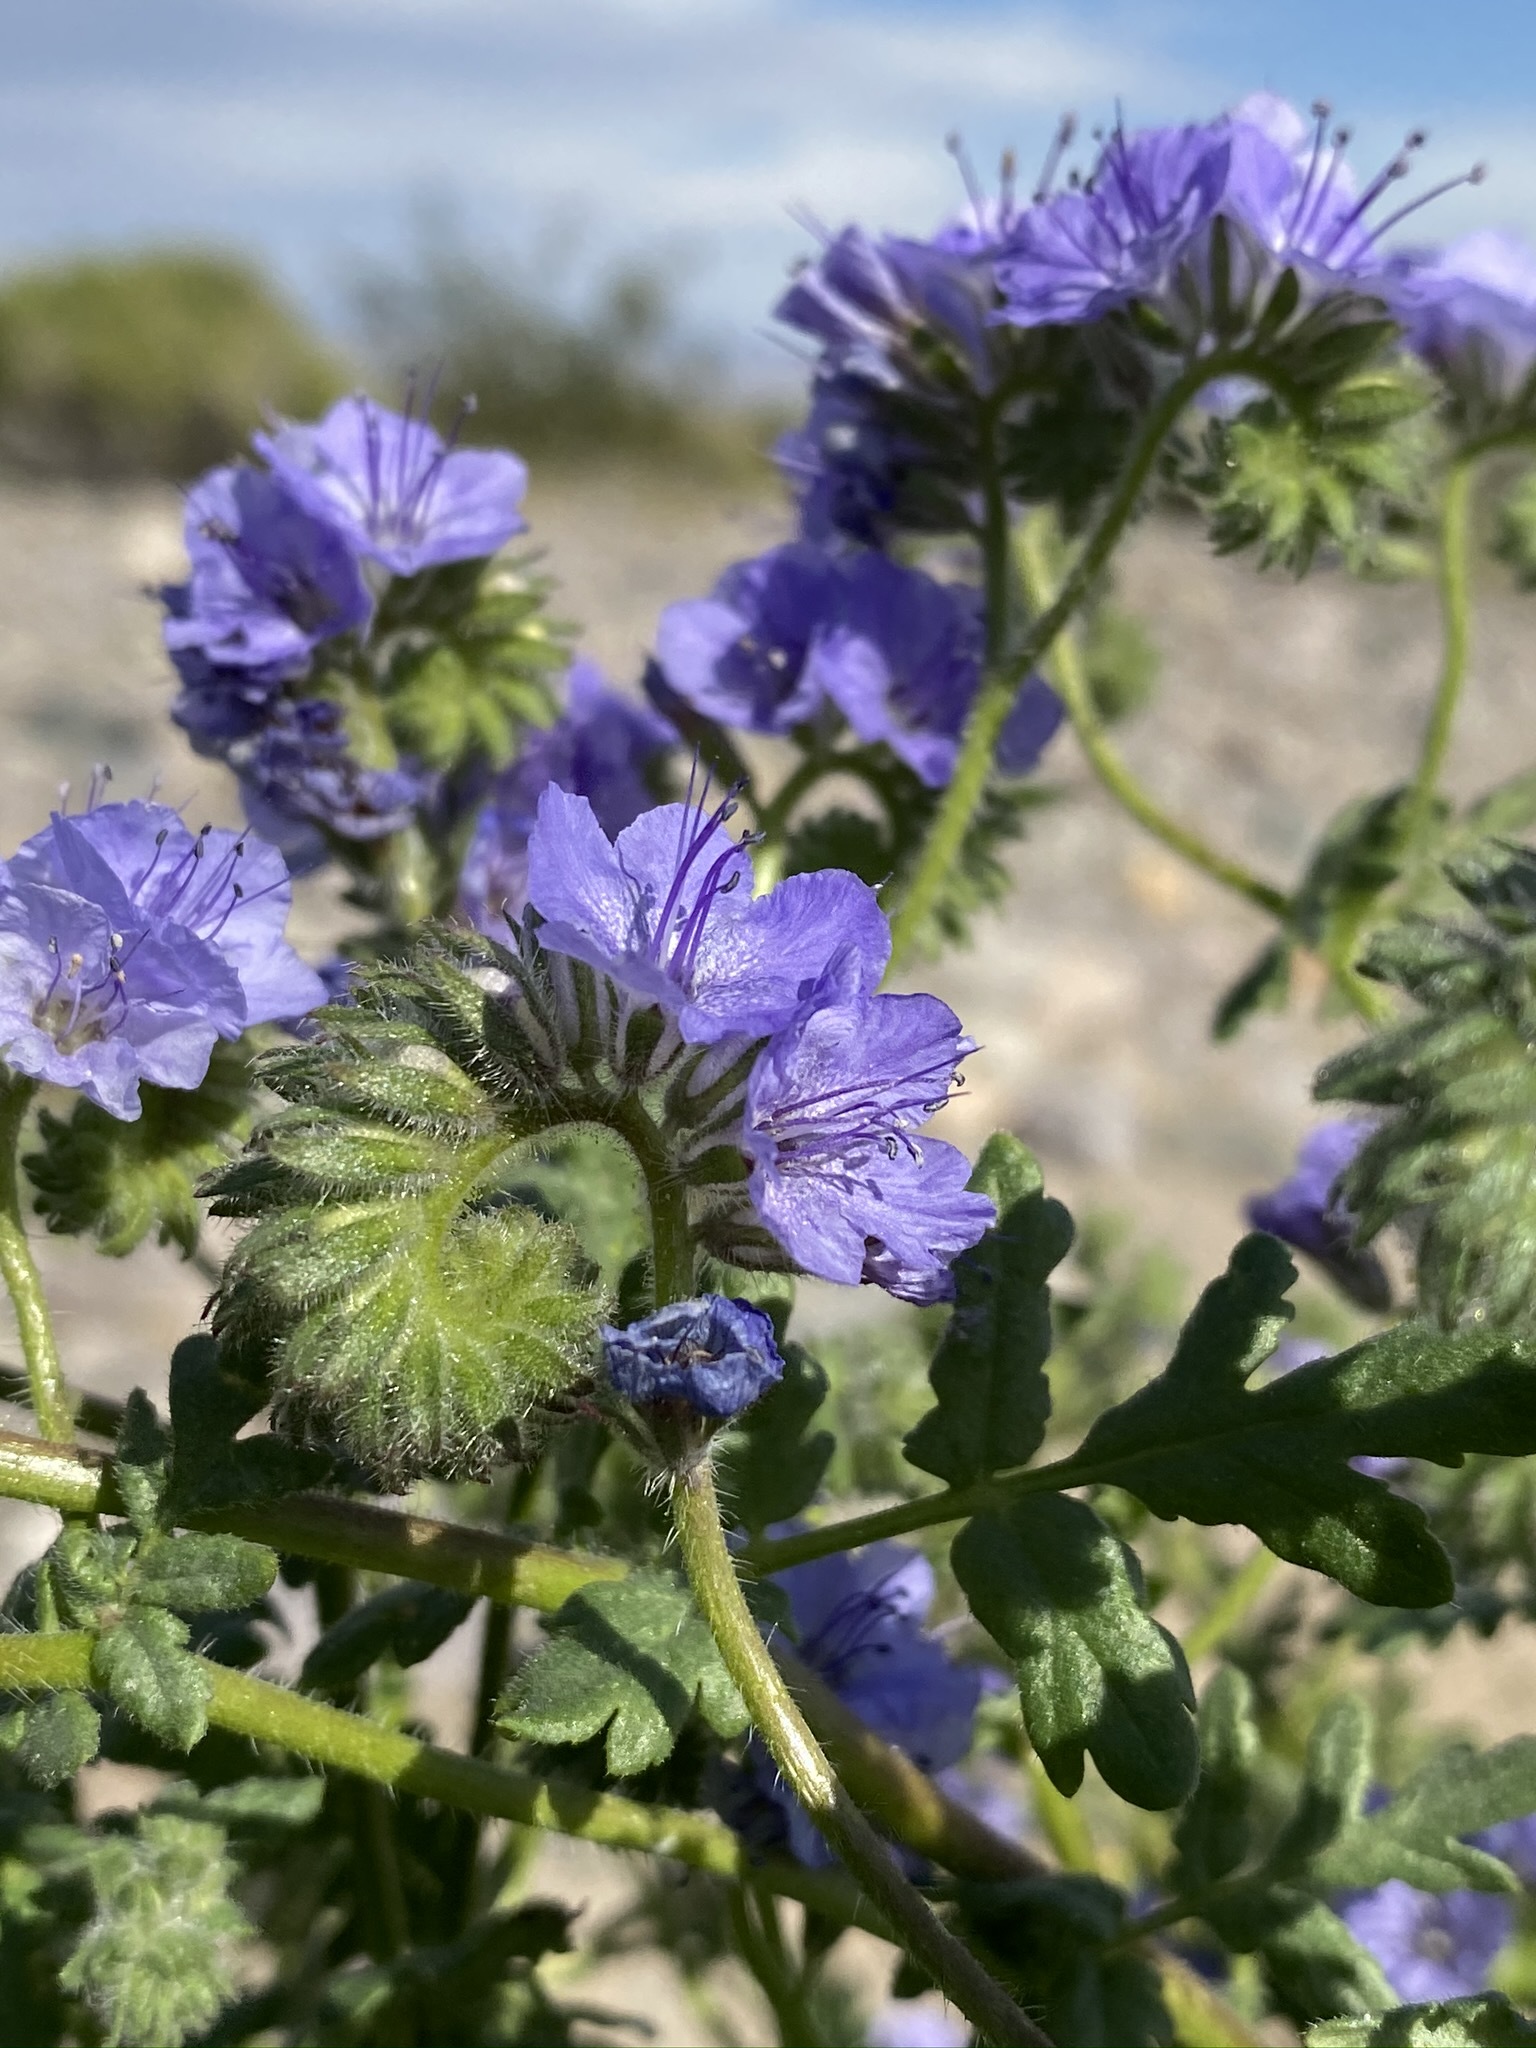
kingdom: Plantae
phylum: Tracheophyta
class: Magnoliopsida
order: Boraginales
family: Hydrophyllaceae
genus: Phacelia
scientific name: Phacelia distans
